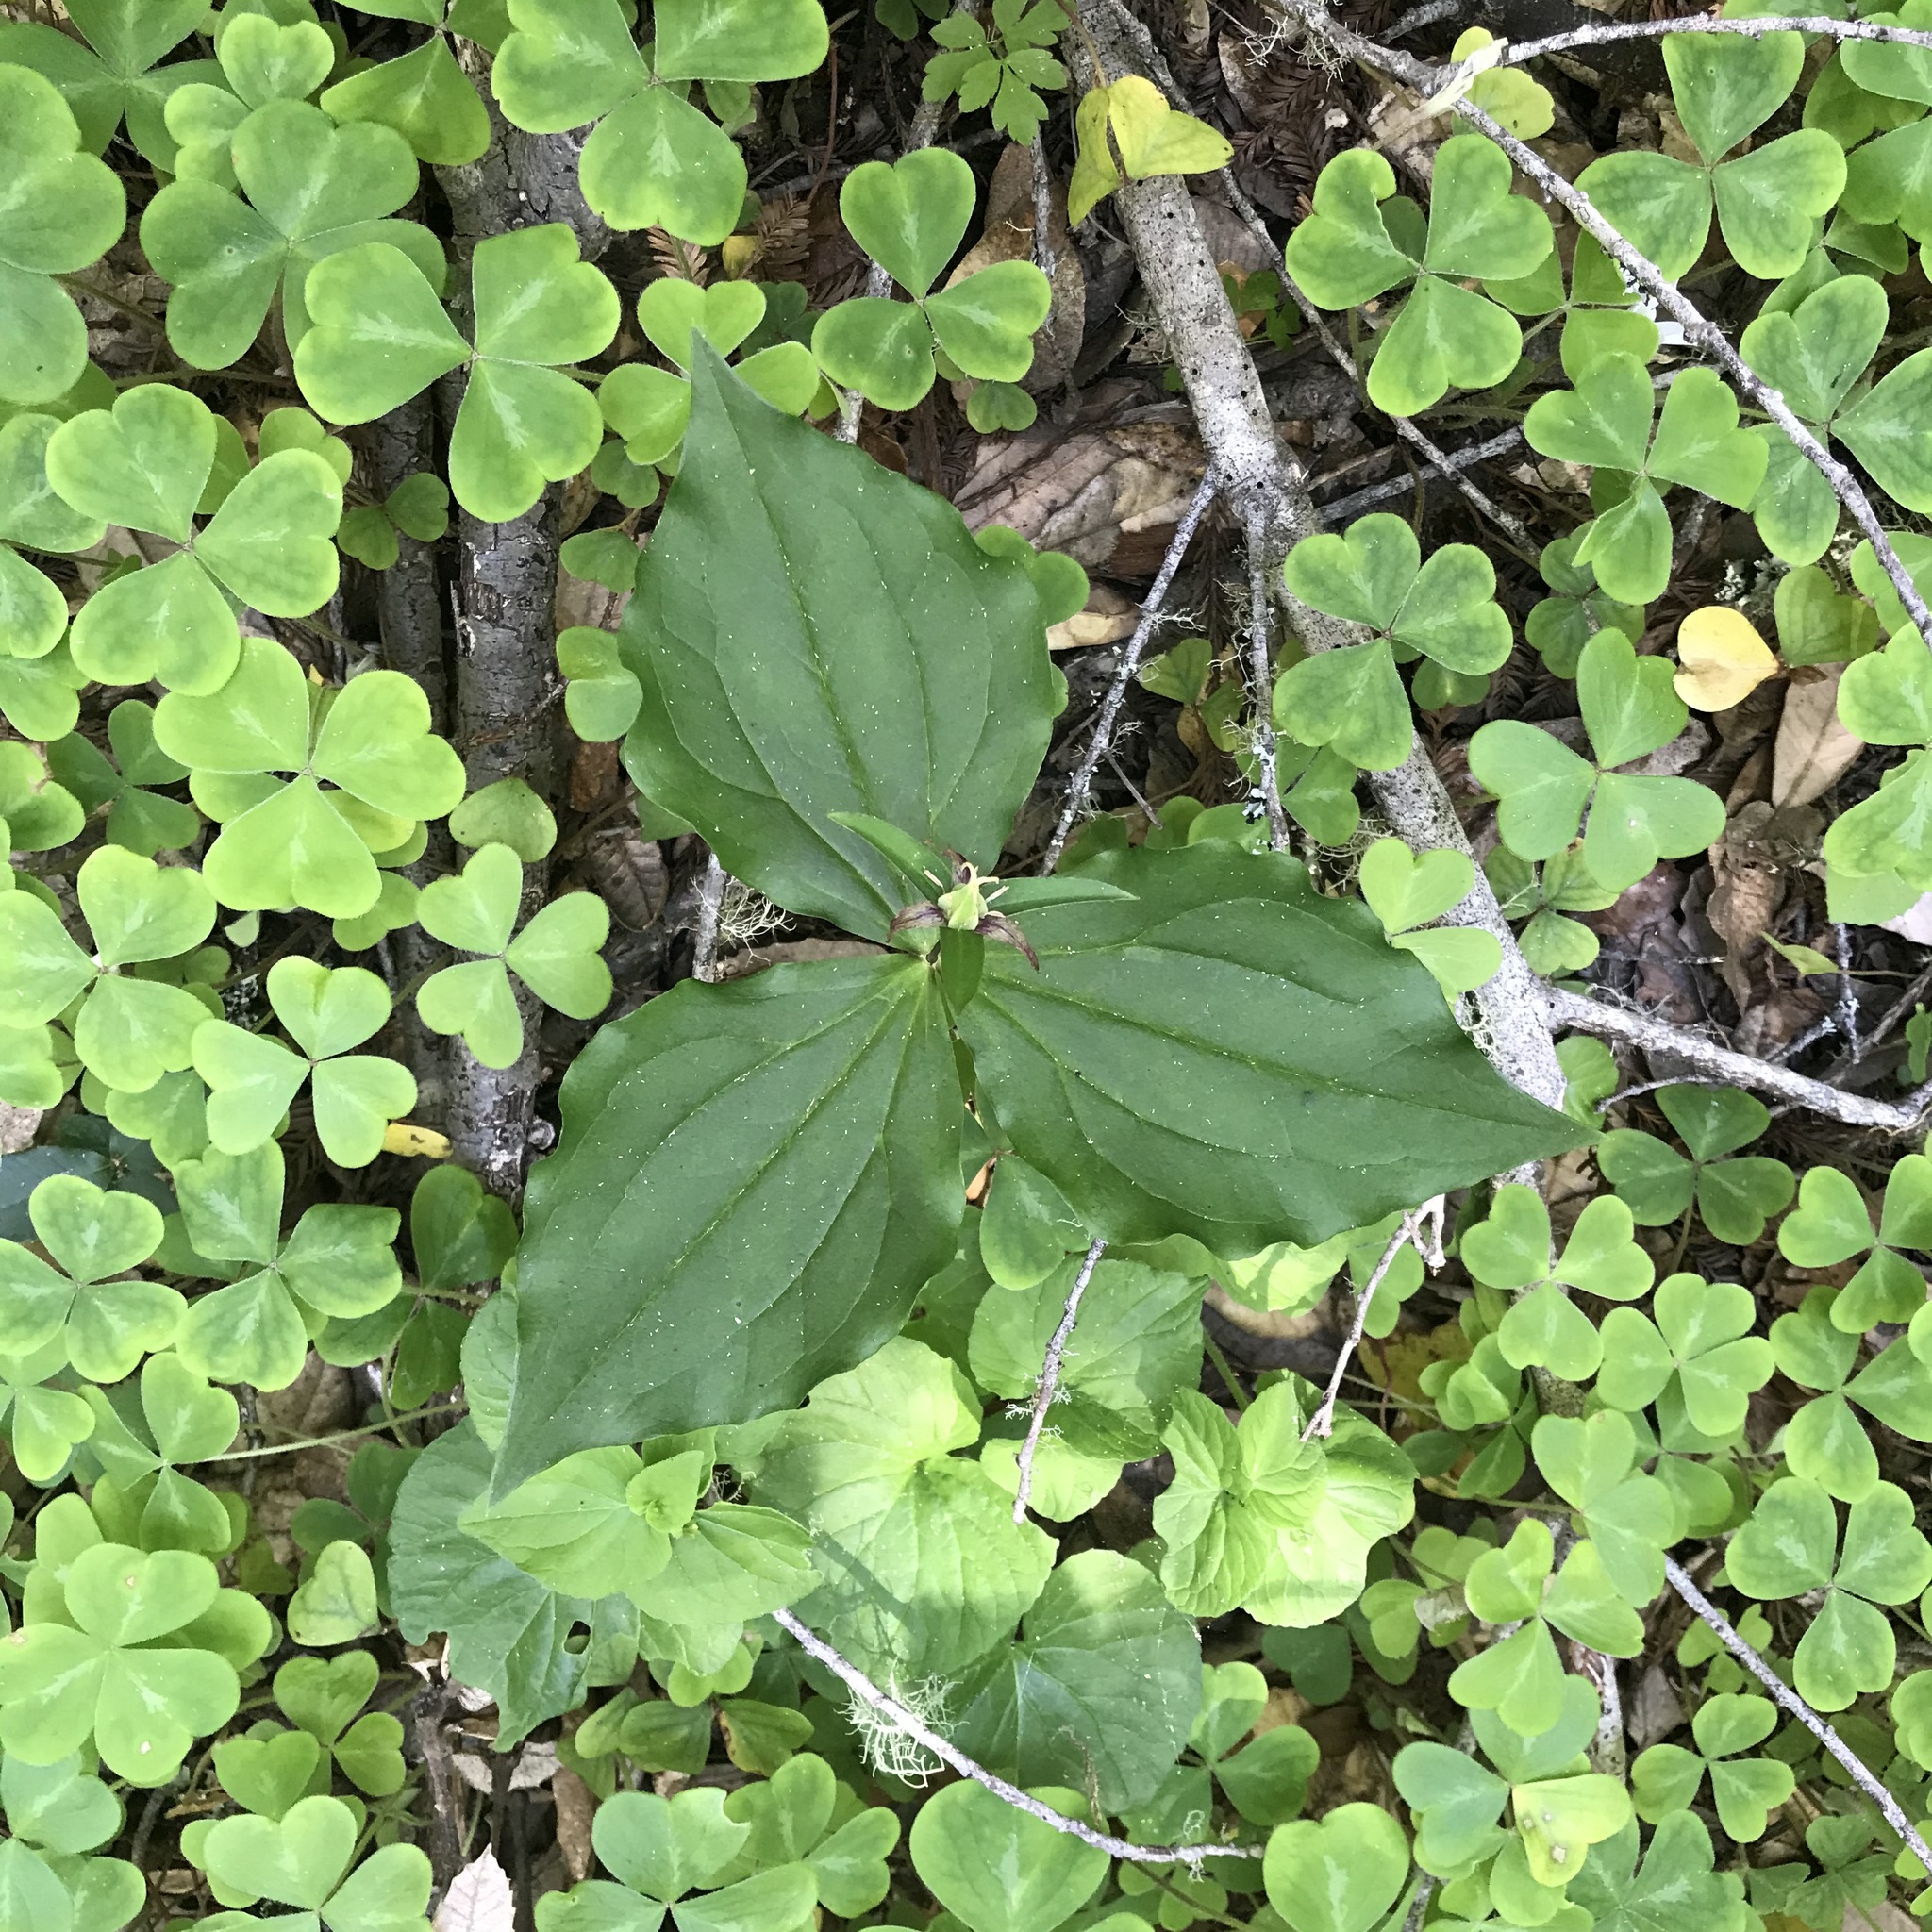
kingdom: Plantae
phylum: Tracheophyta
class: Liliopsida
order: Liliales
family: Melanthiaceae
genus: Trillium
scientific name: Trillium ovatum
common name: Pacific trillium
